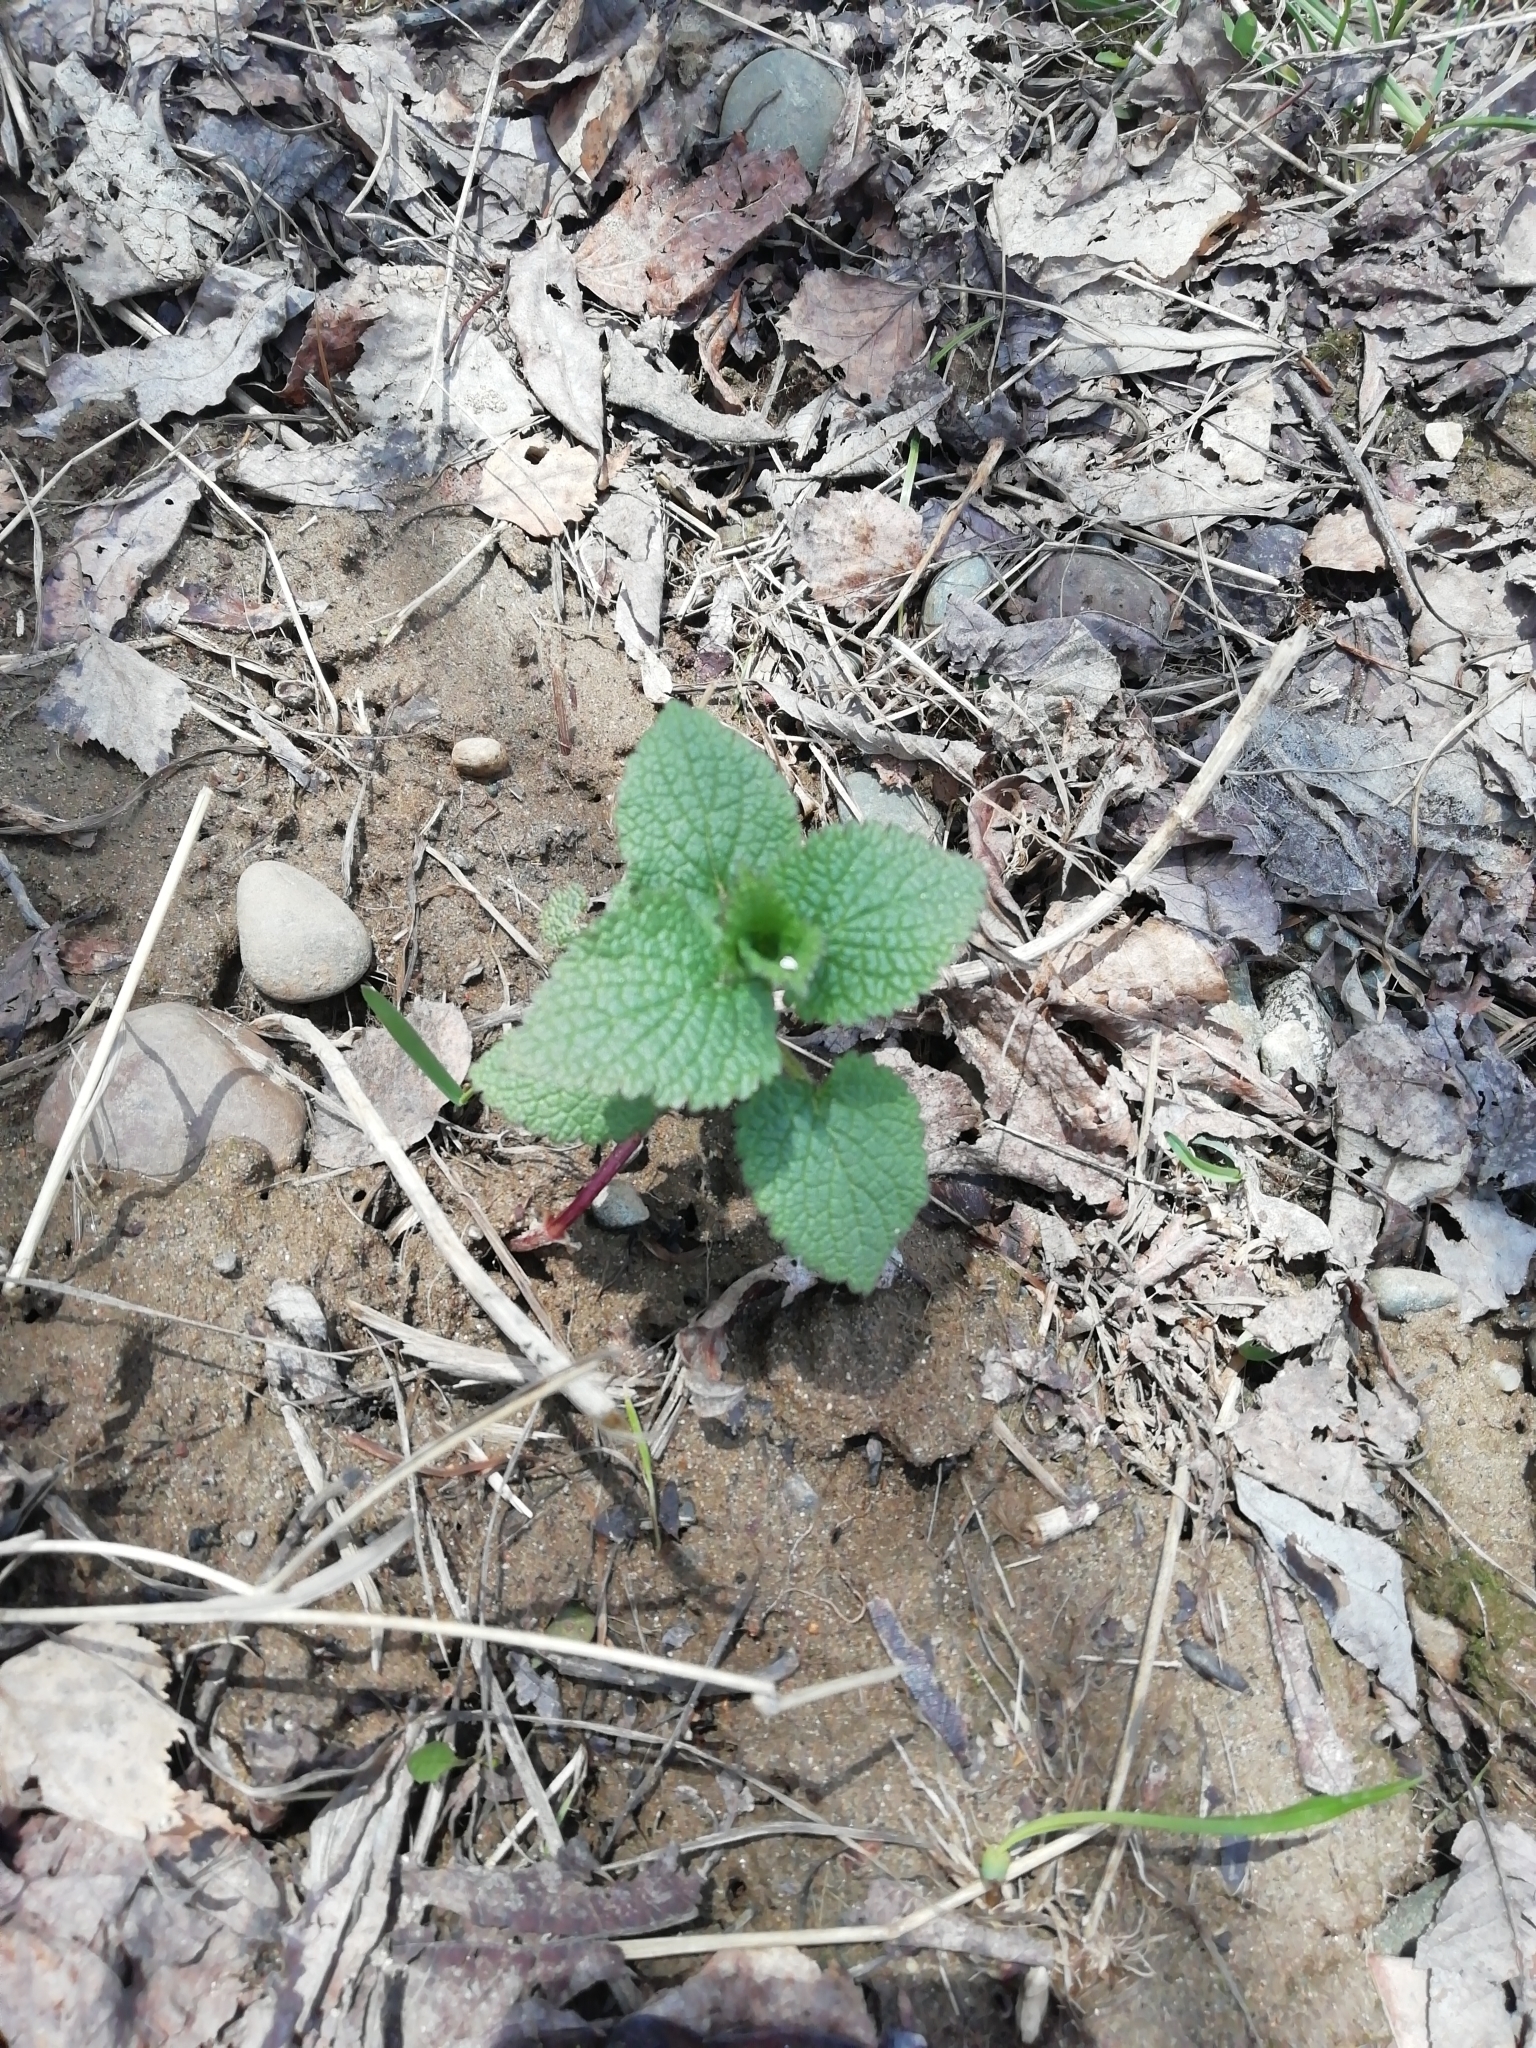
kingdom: Plantae
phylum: Tracheophyta
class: Magnoliopsida
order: Lamiales
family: Lamiaceae
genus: Lamium
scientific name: Lamium album
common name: White dead-nettle
